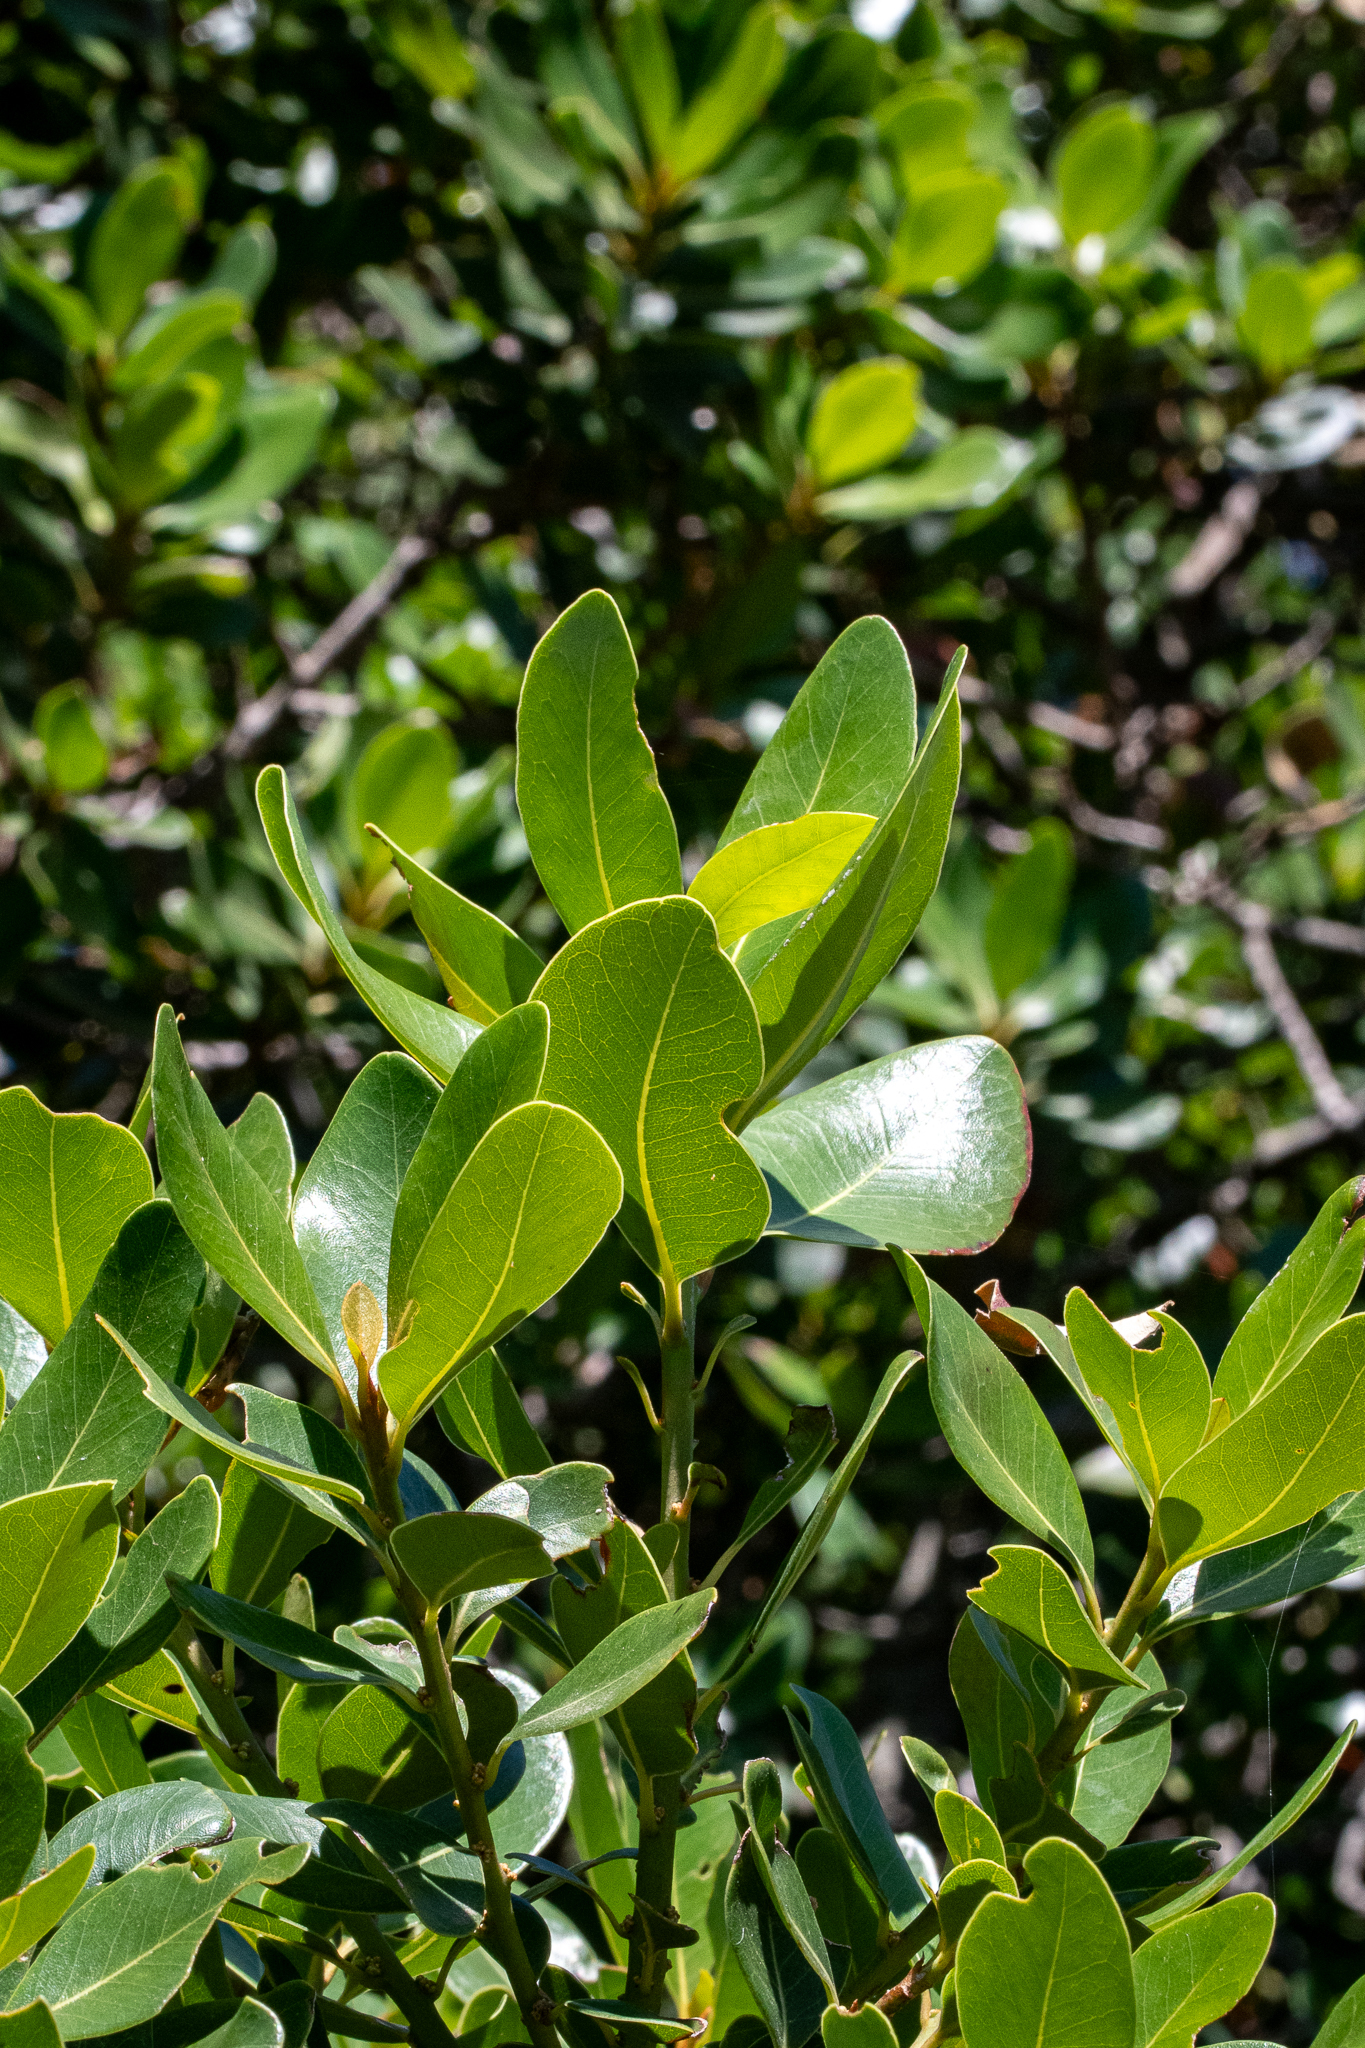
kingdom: Plantae
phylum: Tracheophyta
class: Magnoliopsida
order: Ericales
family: Sapotaceae
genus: Sideroxylon
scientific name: Sideroxylon inerme
